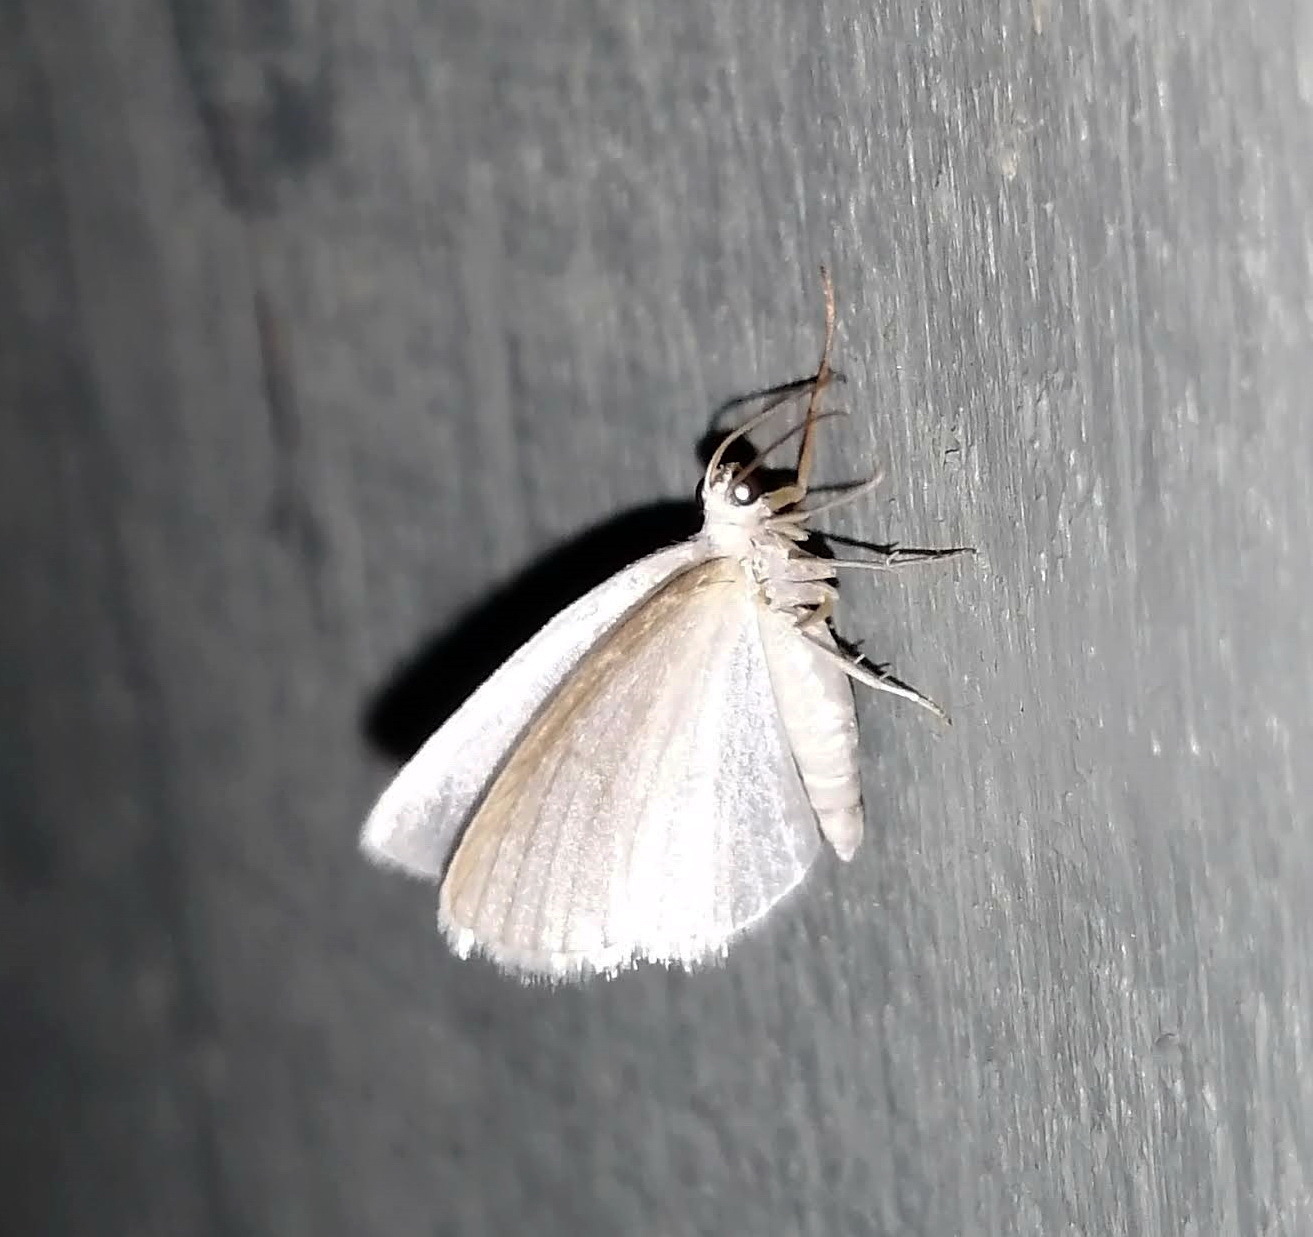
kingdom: Animalia
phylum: Arthropoda
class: Insecta
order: Lepidoptera
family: Geometridae
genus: Lomographa
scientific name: Lomographa vestaliata
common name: White spring moth
